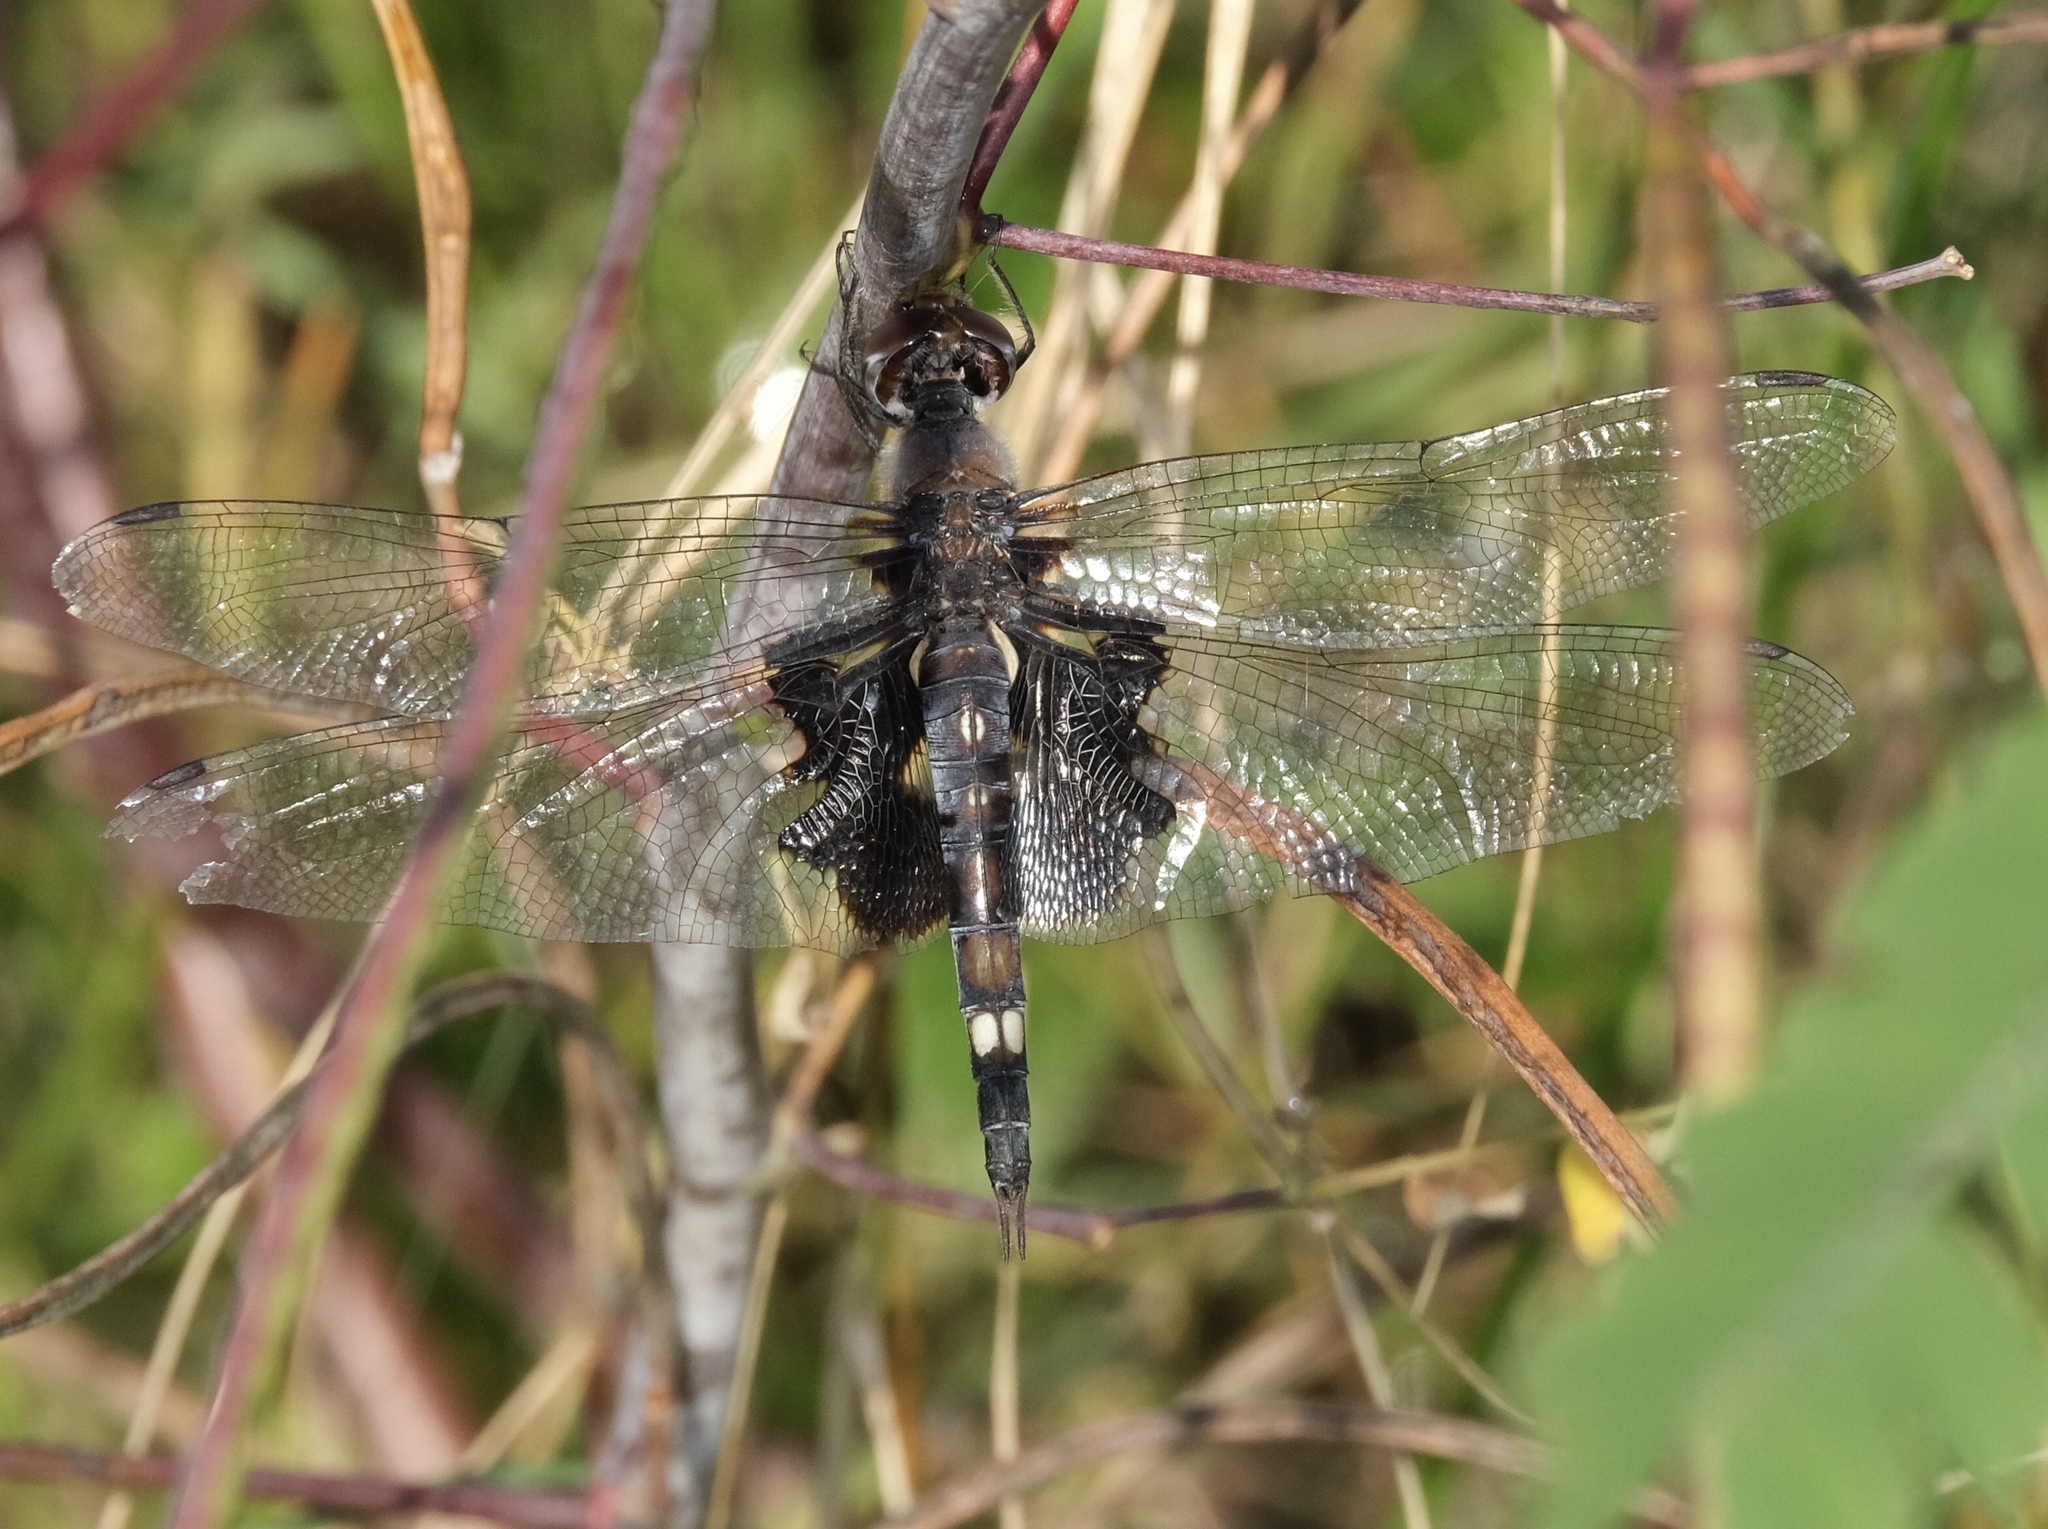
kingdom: Animalia
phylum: Arthropoda
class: Insecta
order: Odonata
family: Libellulidae
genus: Tramea
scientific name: Tramea lacerata
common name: Black saddlebags
